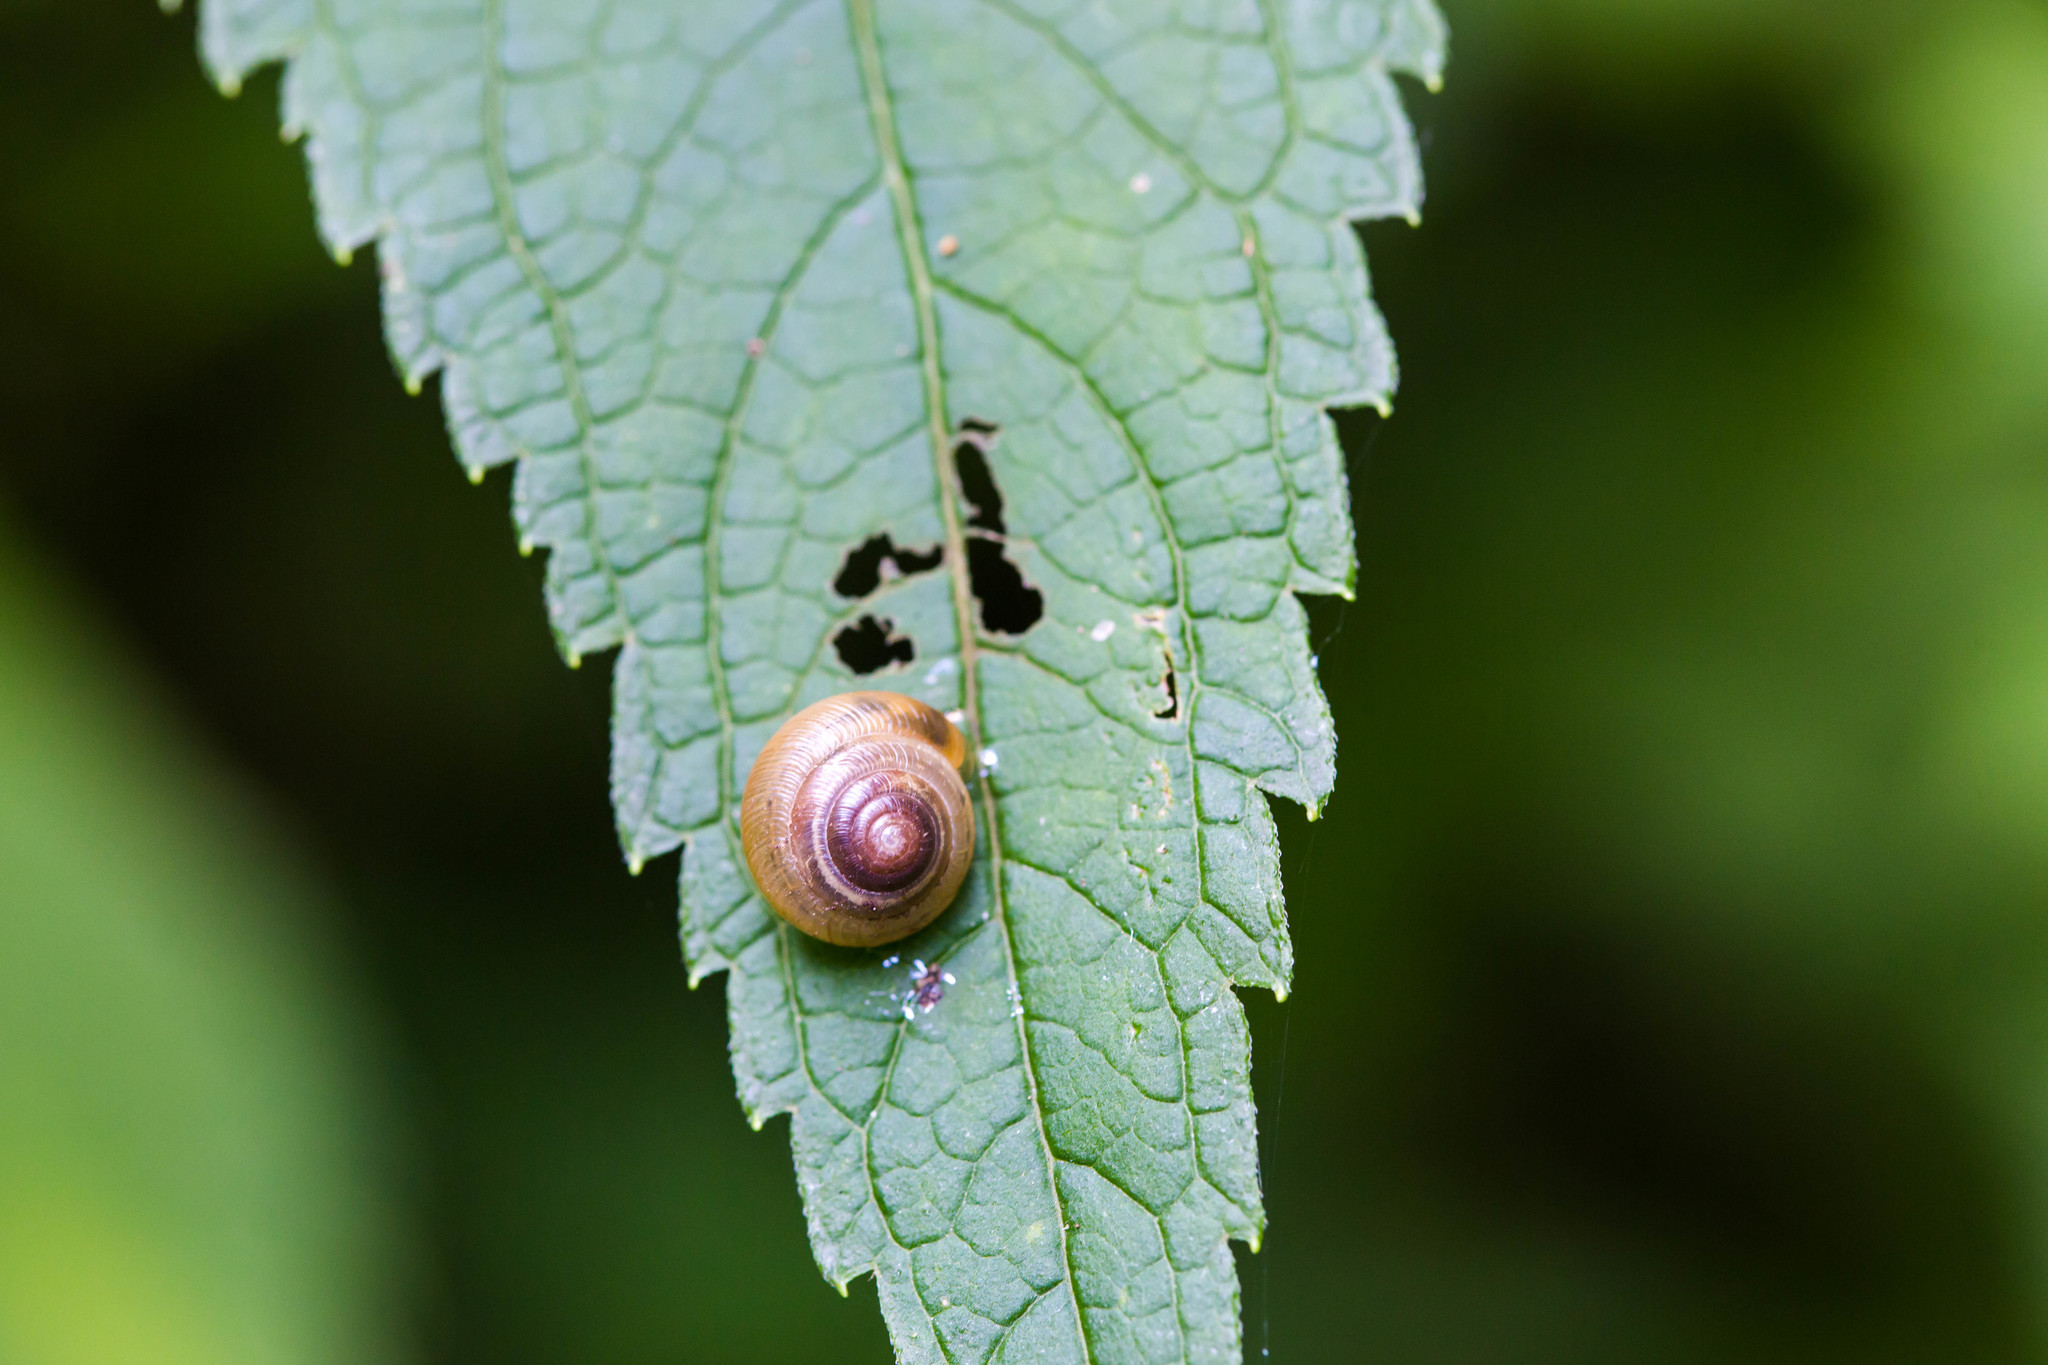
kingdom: Animalia
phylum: Mollusca
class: Gastropoda
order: Stylommatophora
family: Oxychilidae
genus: Oxychilus
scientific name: Oxychilus draparnaudi
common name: Draparnaud's glass snail
